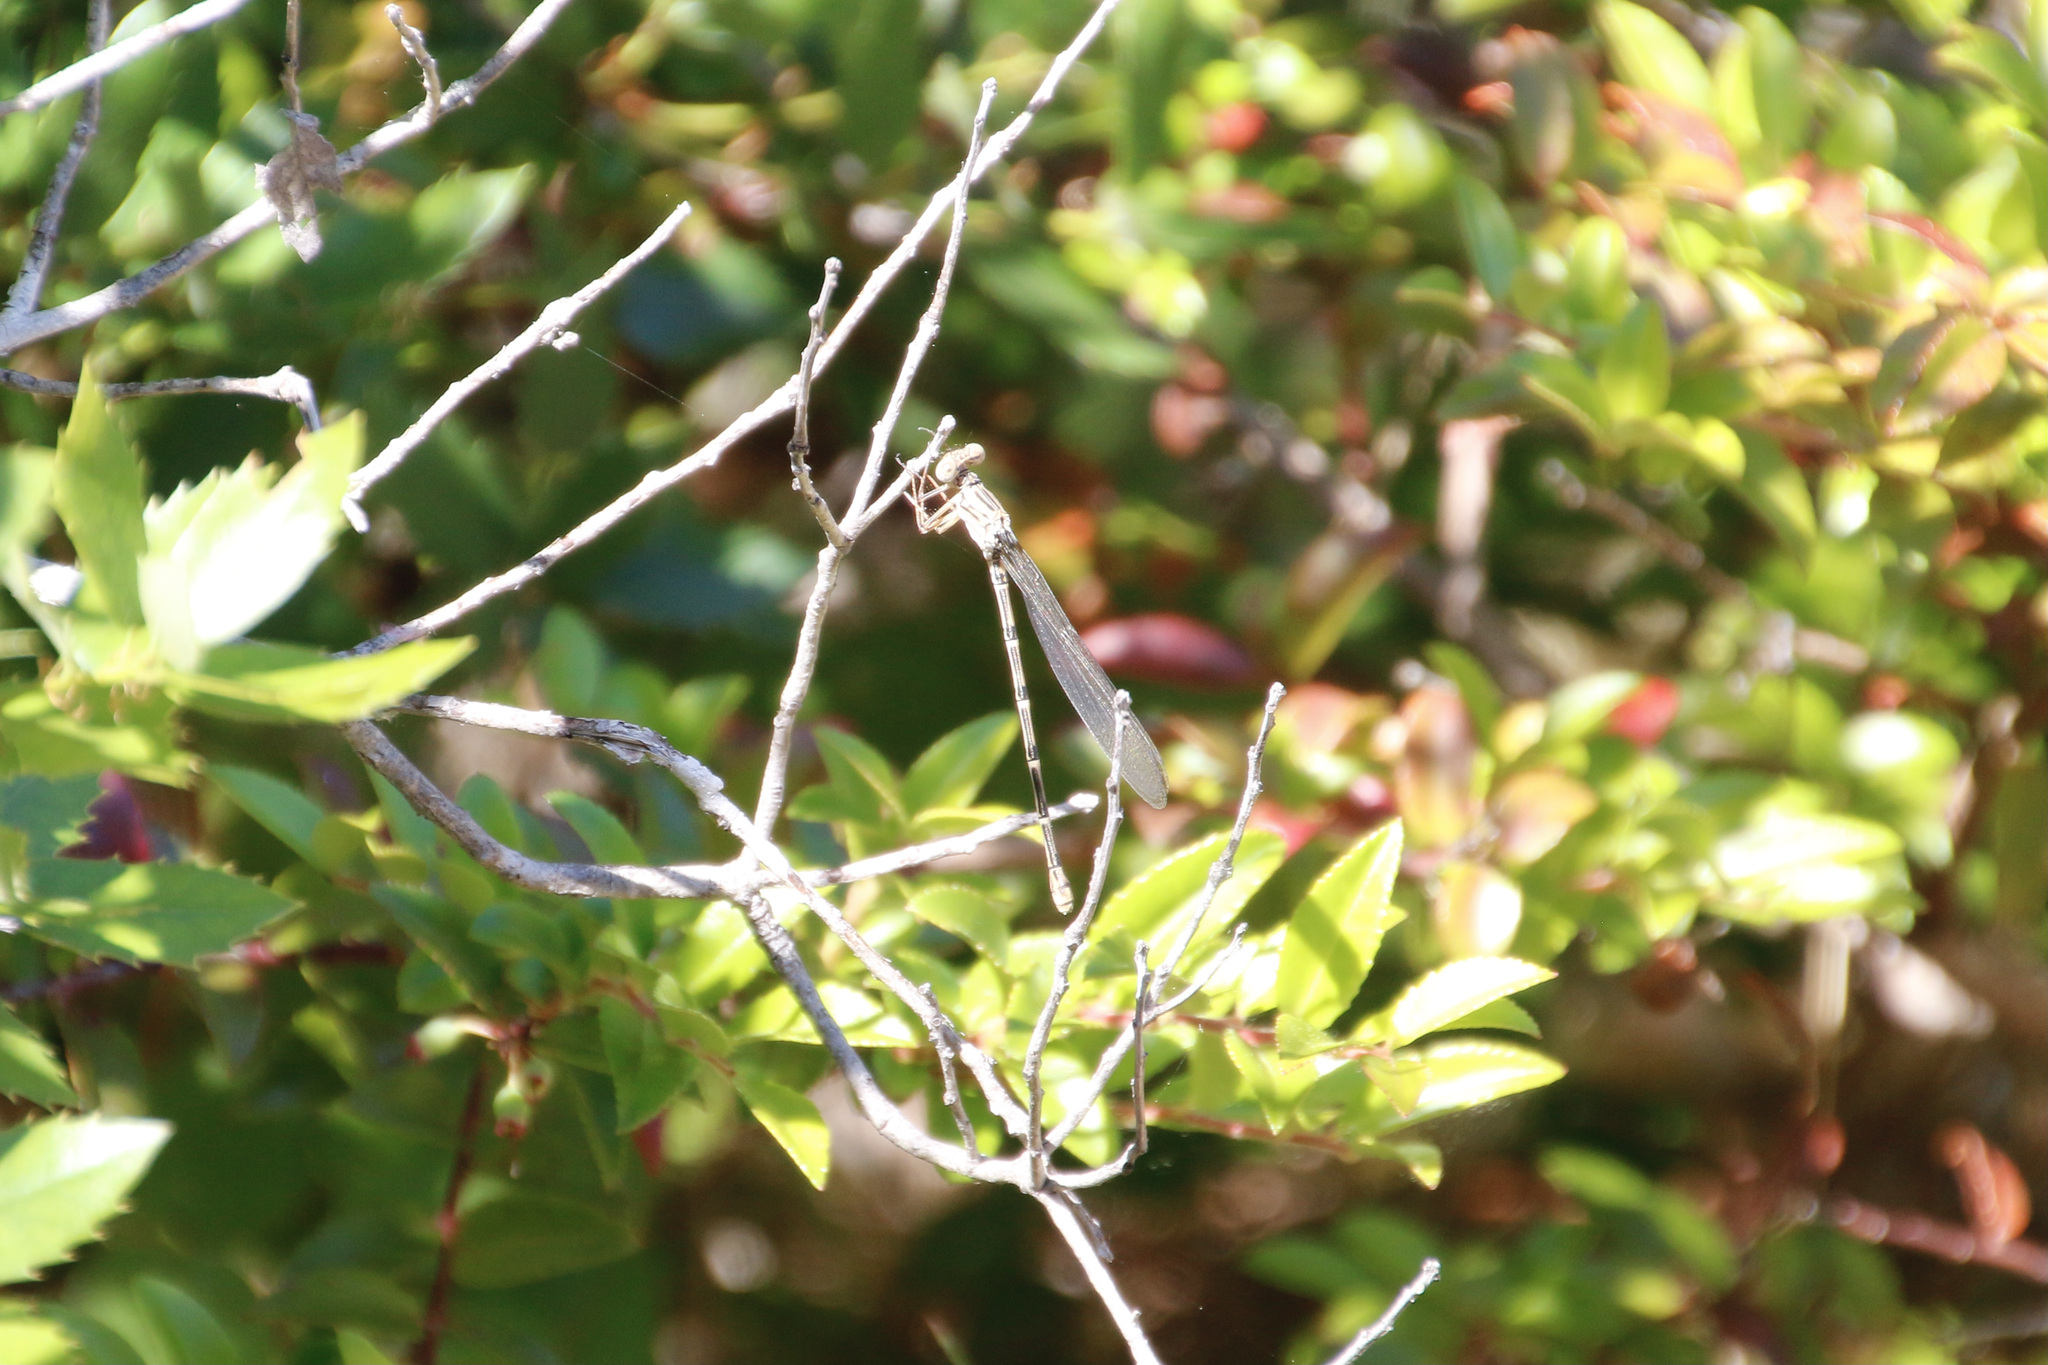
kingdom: Animalia
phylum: Arthropoda
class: Insecta
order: Odonata
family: Coenagrionidae
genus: Argia
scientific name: Argia lugens
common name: Sooty dancer
